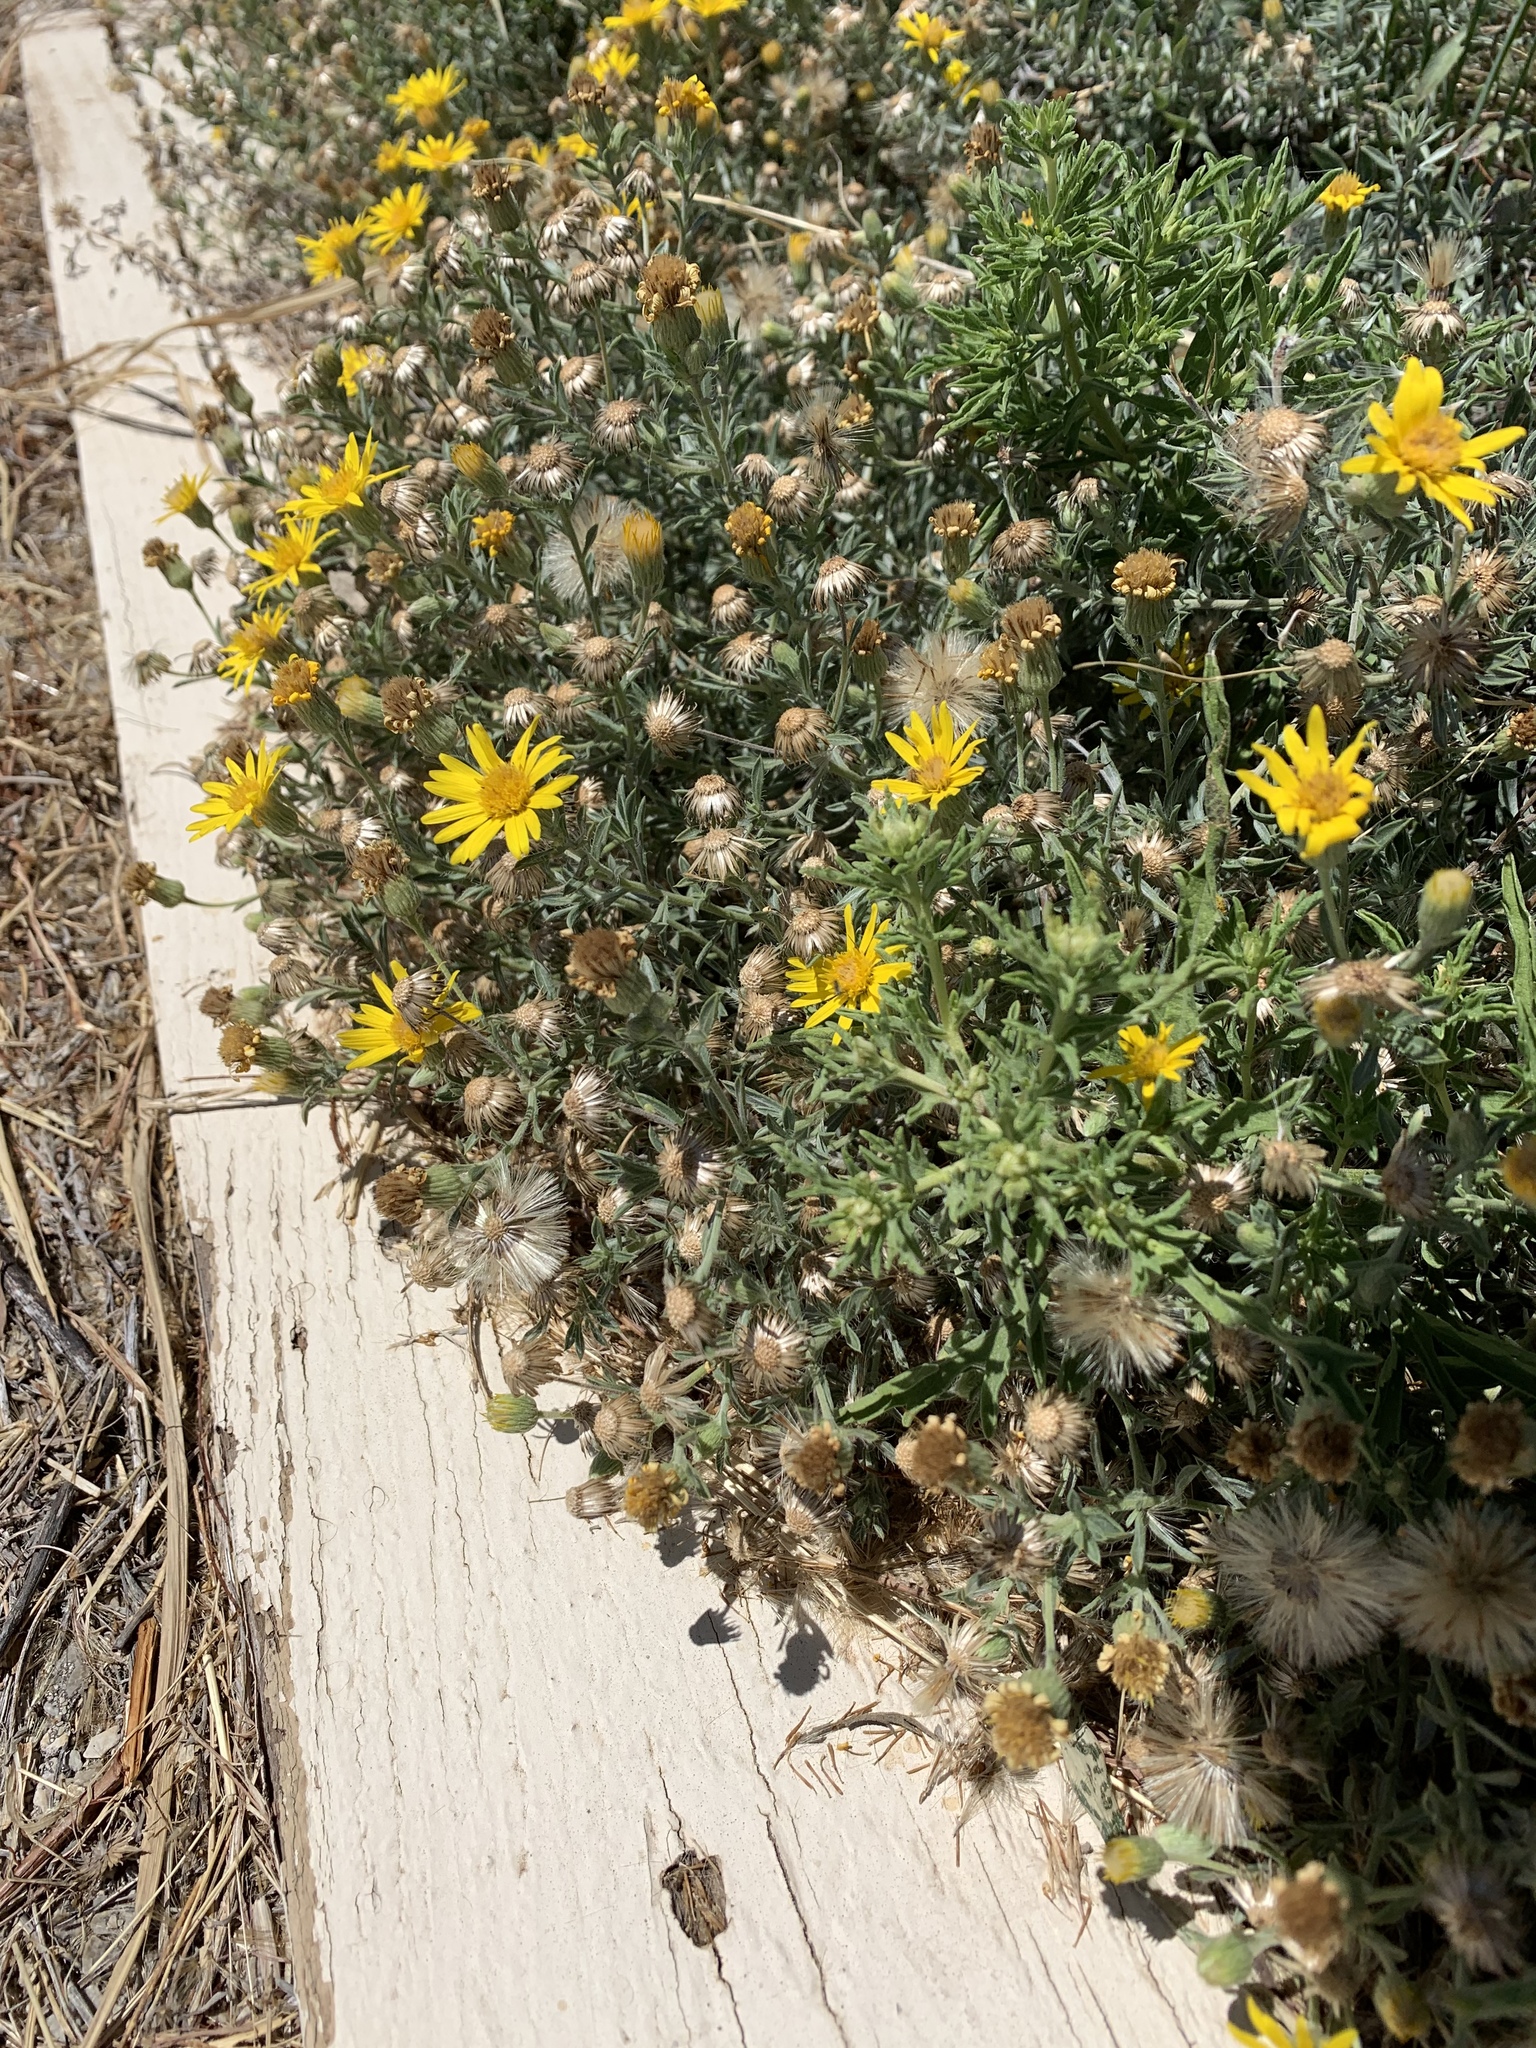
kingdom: Plantae
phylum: Tracheophyta
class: Magnoliopsida
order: Asterales
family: Asteraceae
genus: Xanthisma
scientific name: Xanthisma spinulosum
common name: Spiny goldenweed
